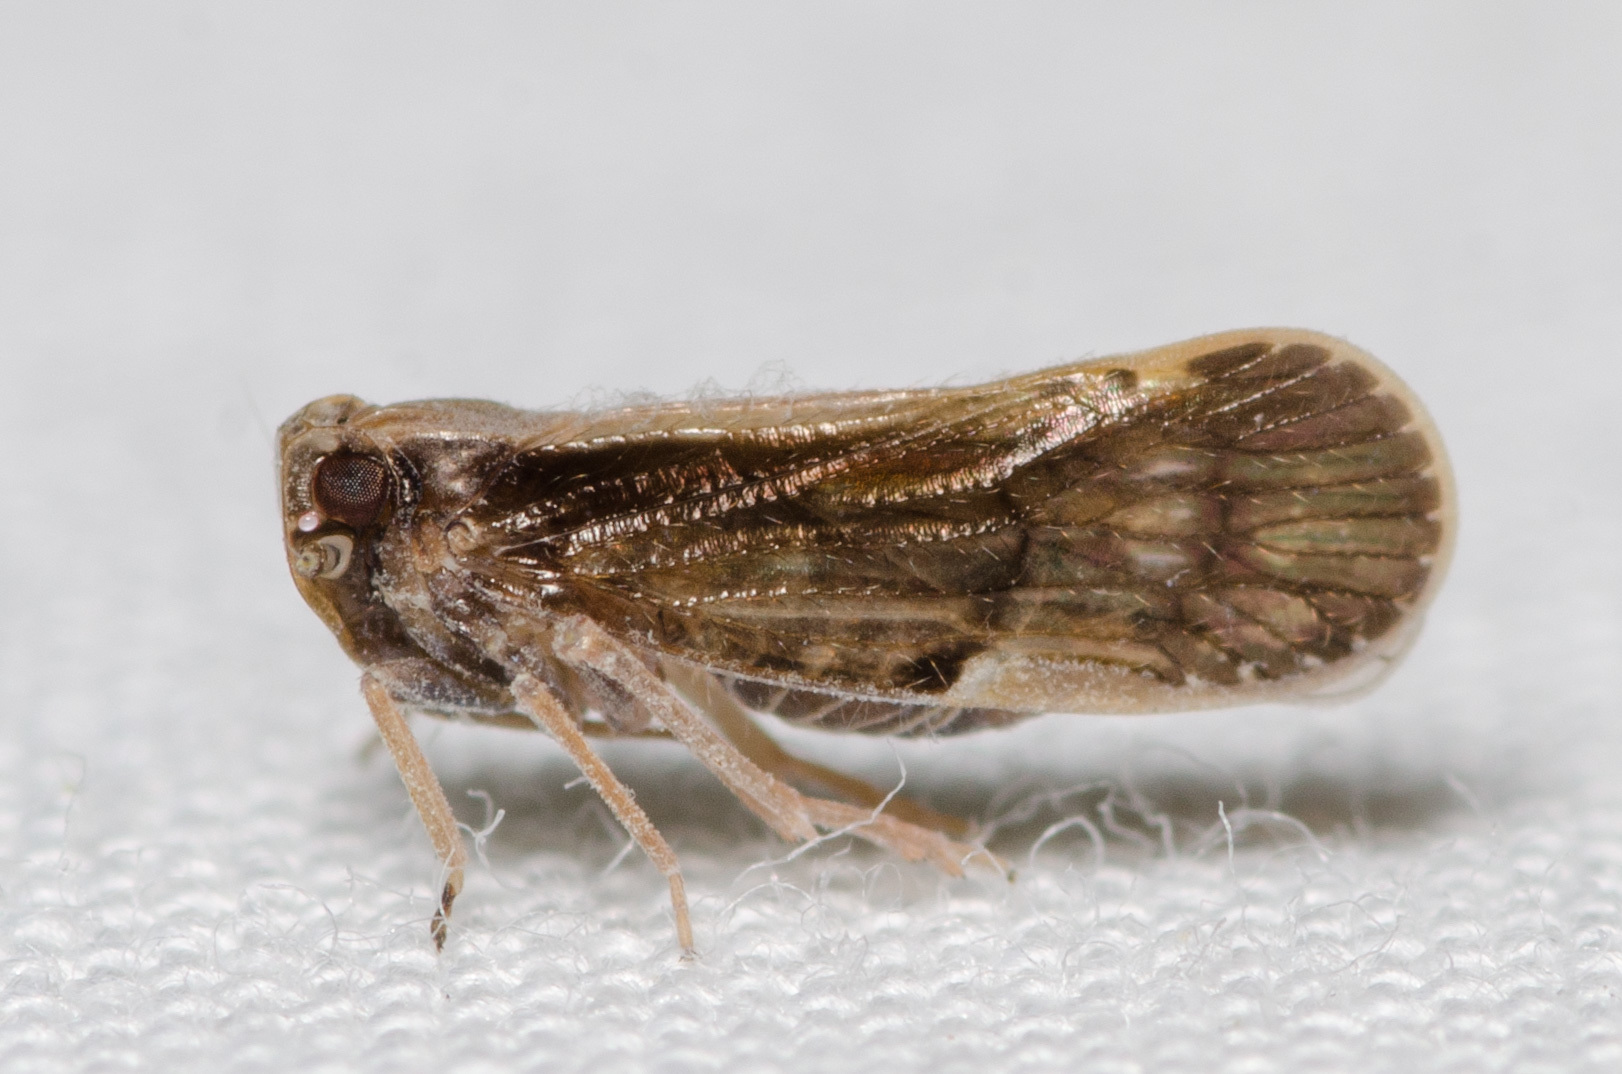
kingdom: Animalia
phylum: Arthropoda
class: Insecta
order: Hemiptera
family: Cixiidae
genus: Pintalia
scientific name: Pintalia delicata
